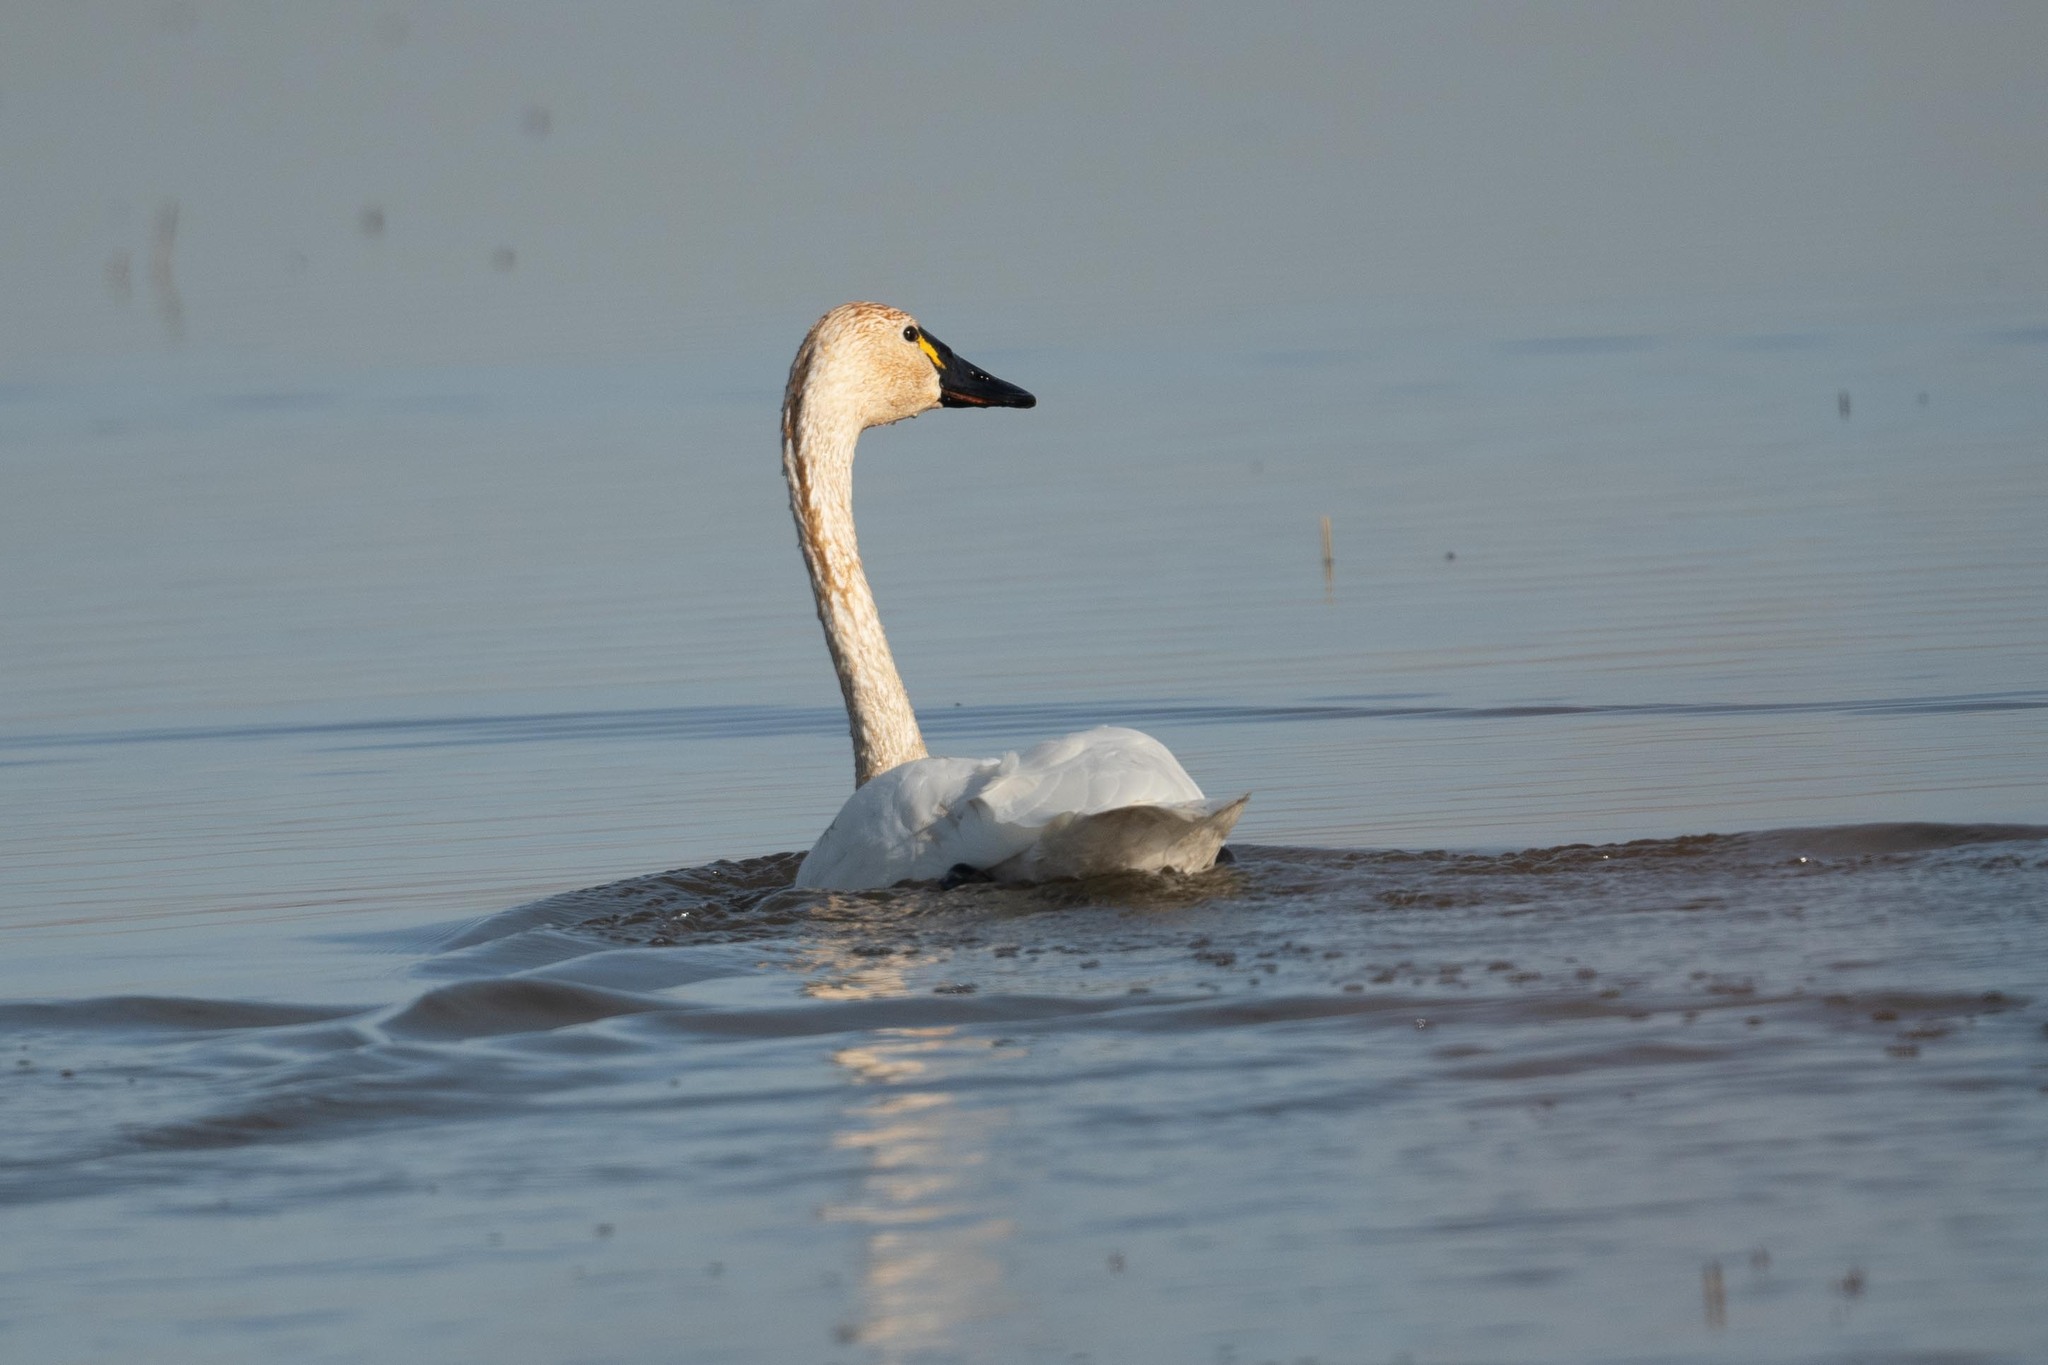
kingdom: Animalia
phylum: Chordata
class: Aves
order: Anseriformes
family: Anatidae
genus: Cygnus
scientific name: Cygnus columbianus
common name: Tundra swan
